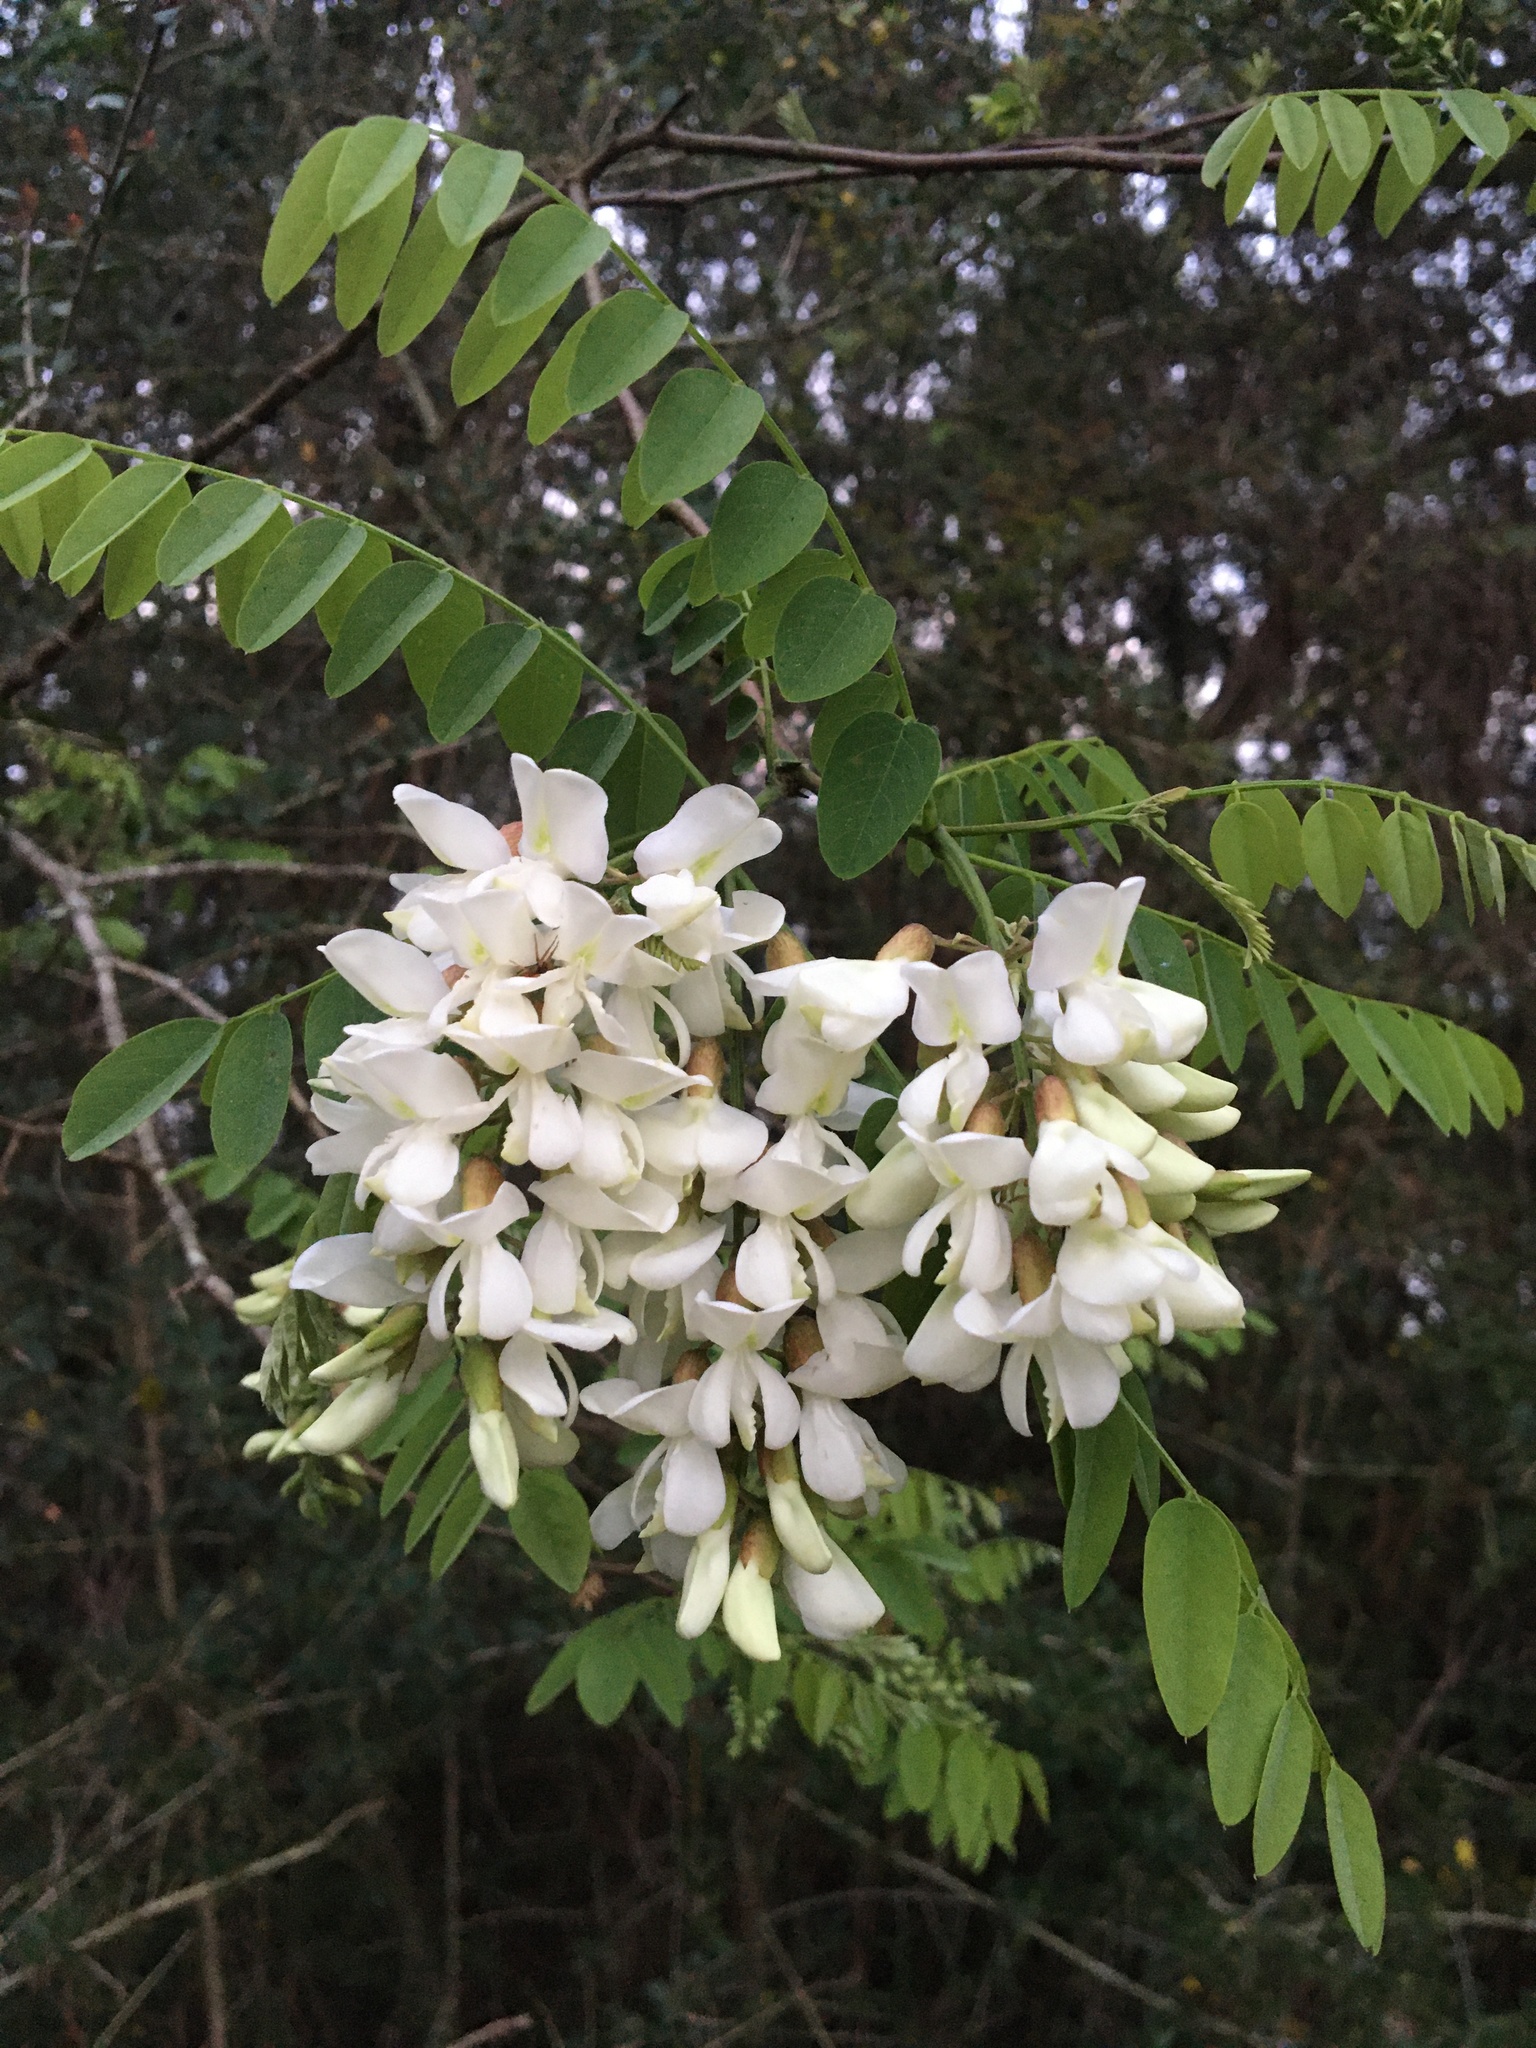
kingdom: Plantae
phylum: Tracheophyta
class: Magnoliopsida
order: Fabales
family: Fabaceae
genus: Robinia
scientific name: Robinia pseudoacacia
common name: Black locust
